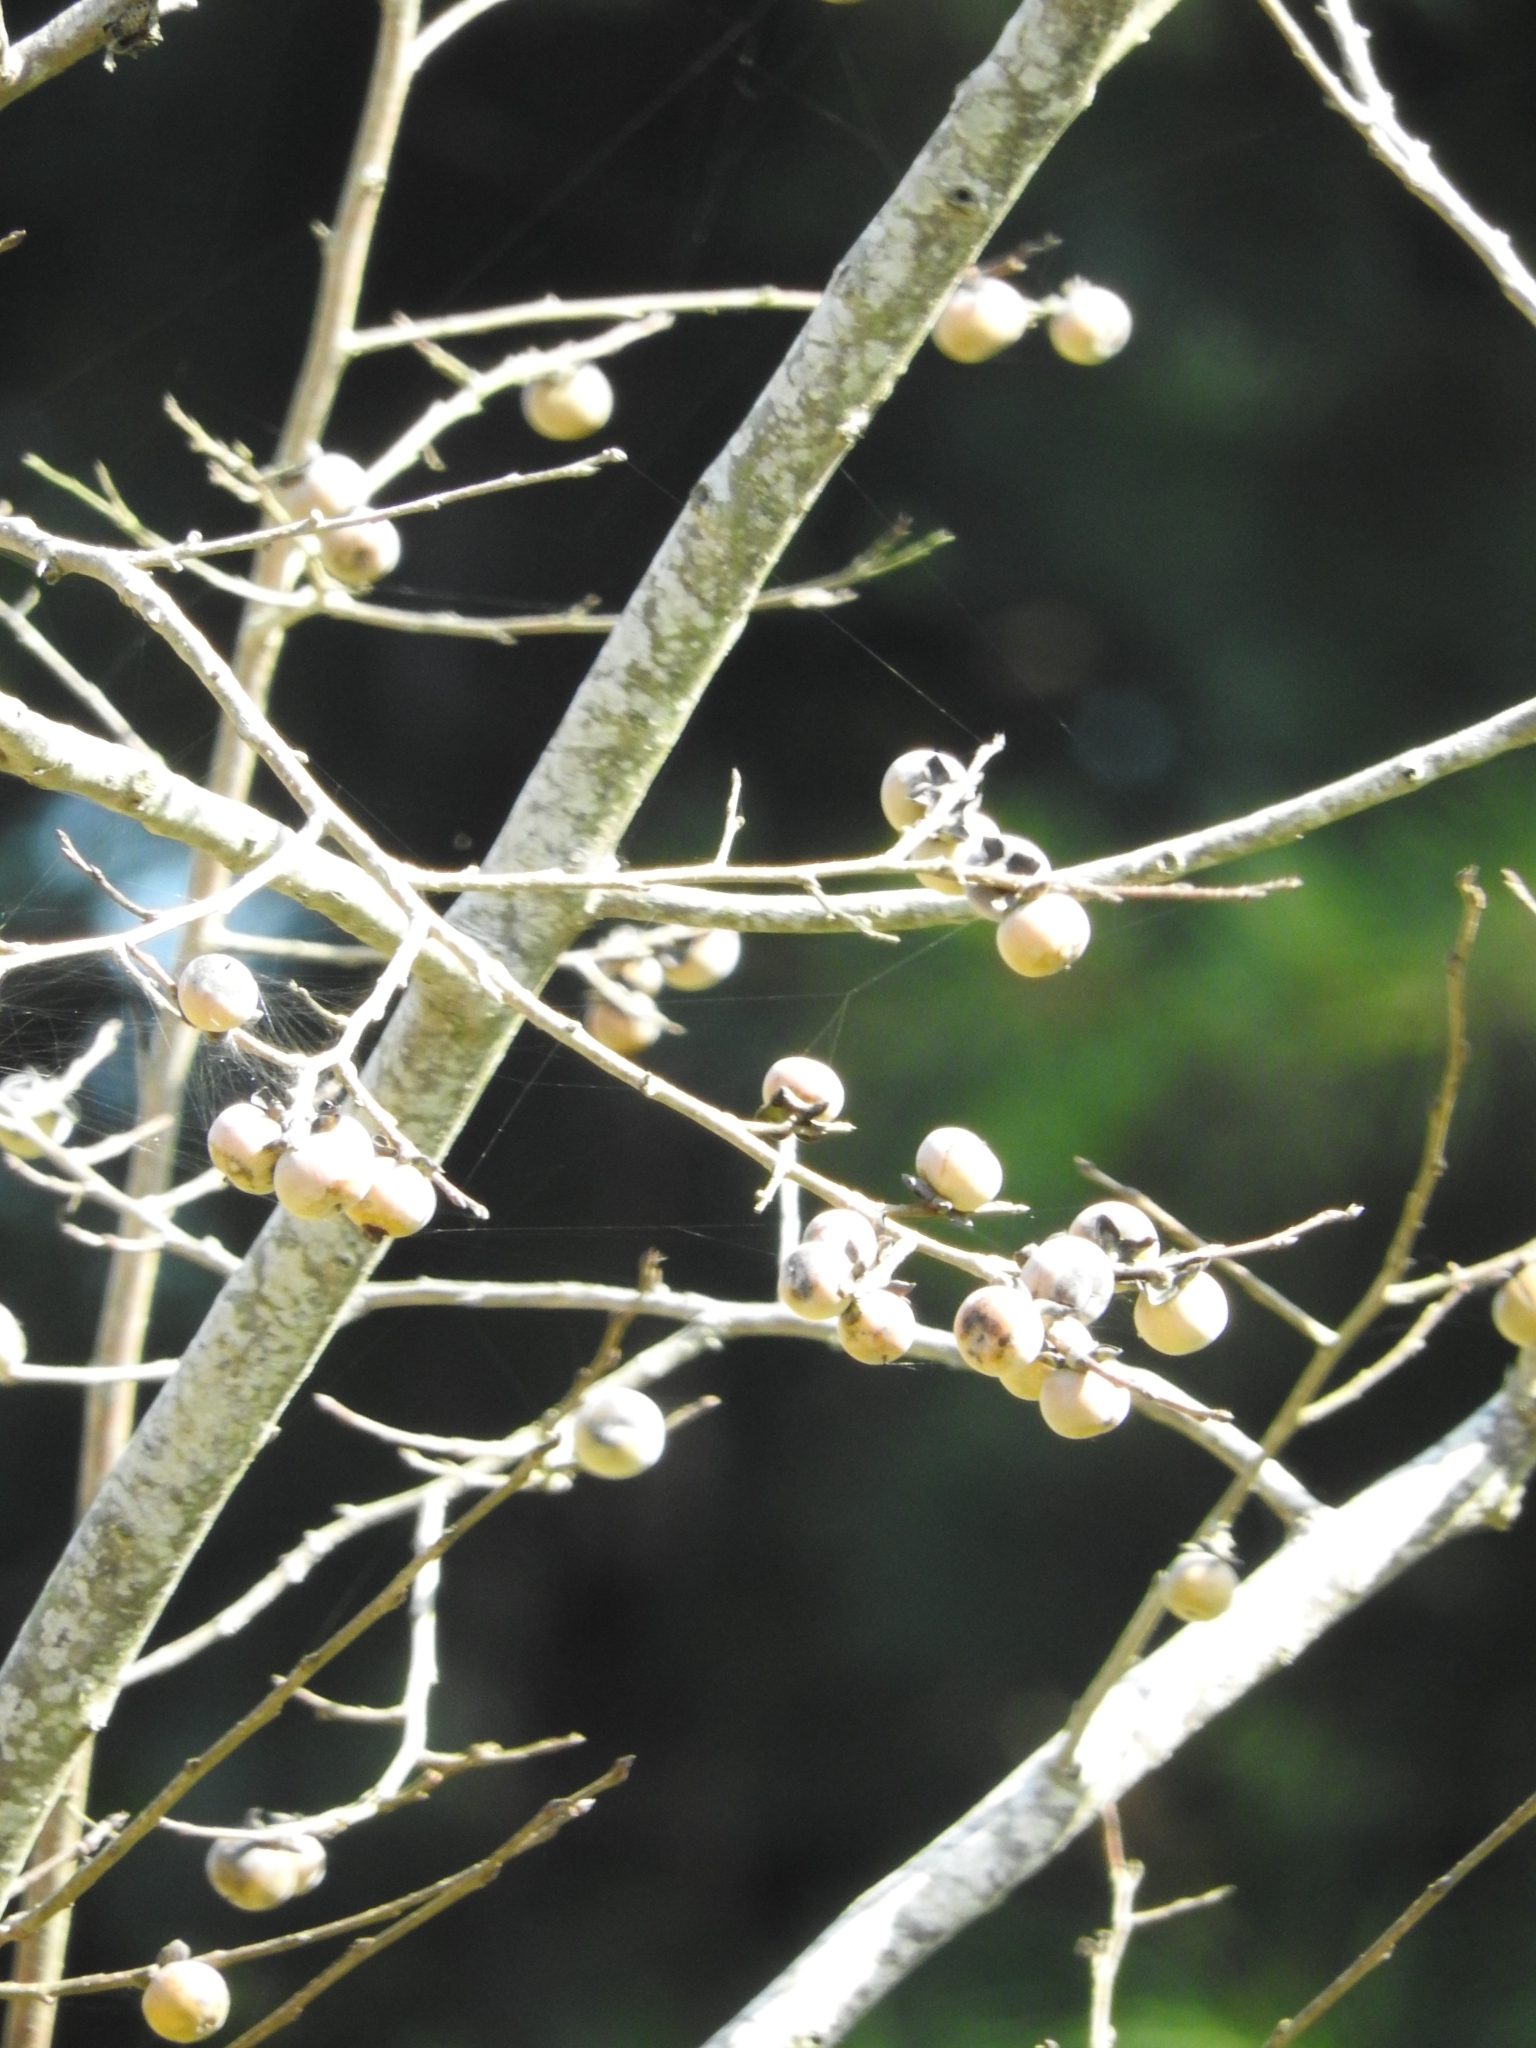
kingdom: Plantae
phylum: Tracheophyta
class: Magnoliopsida
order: Ericales
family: Ebenaceae
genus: Diospyros
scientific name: Diospyros lotus
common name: Date-plum
